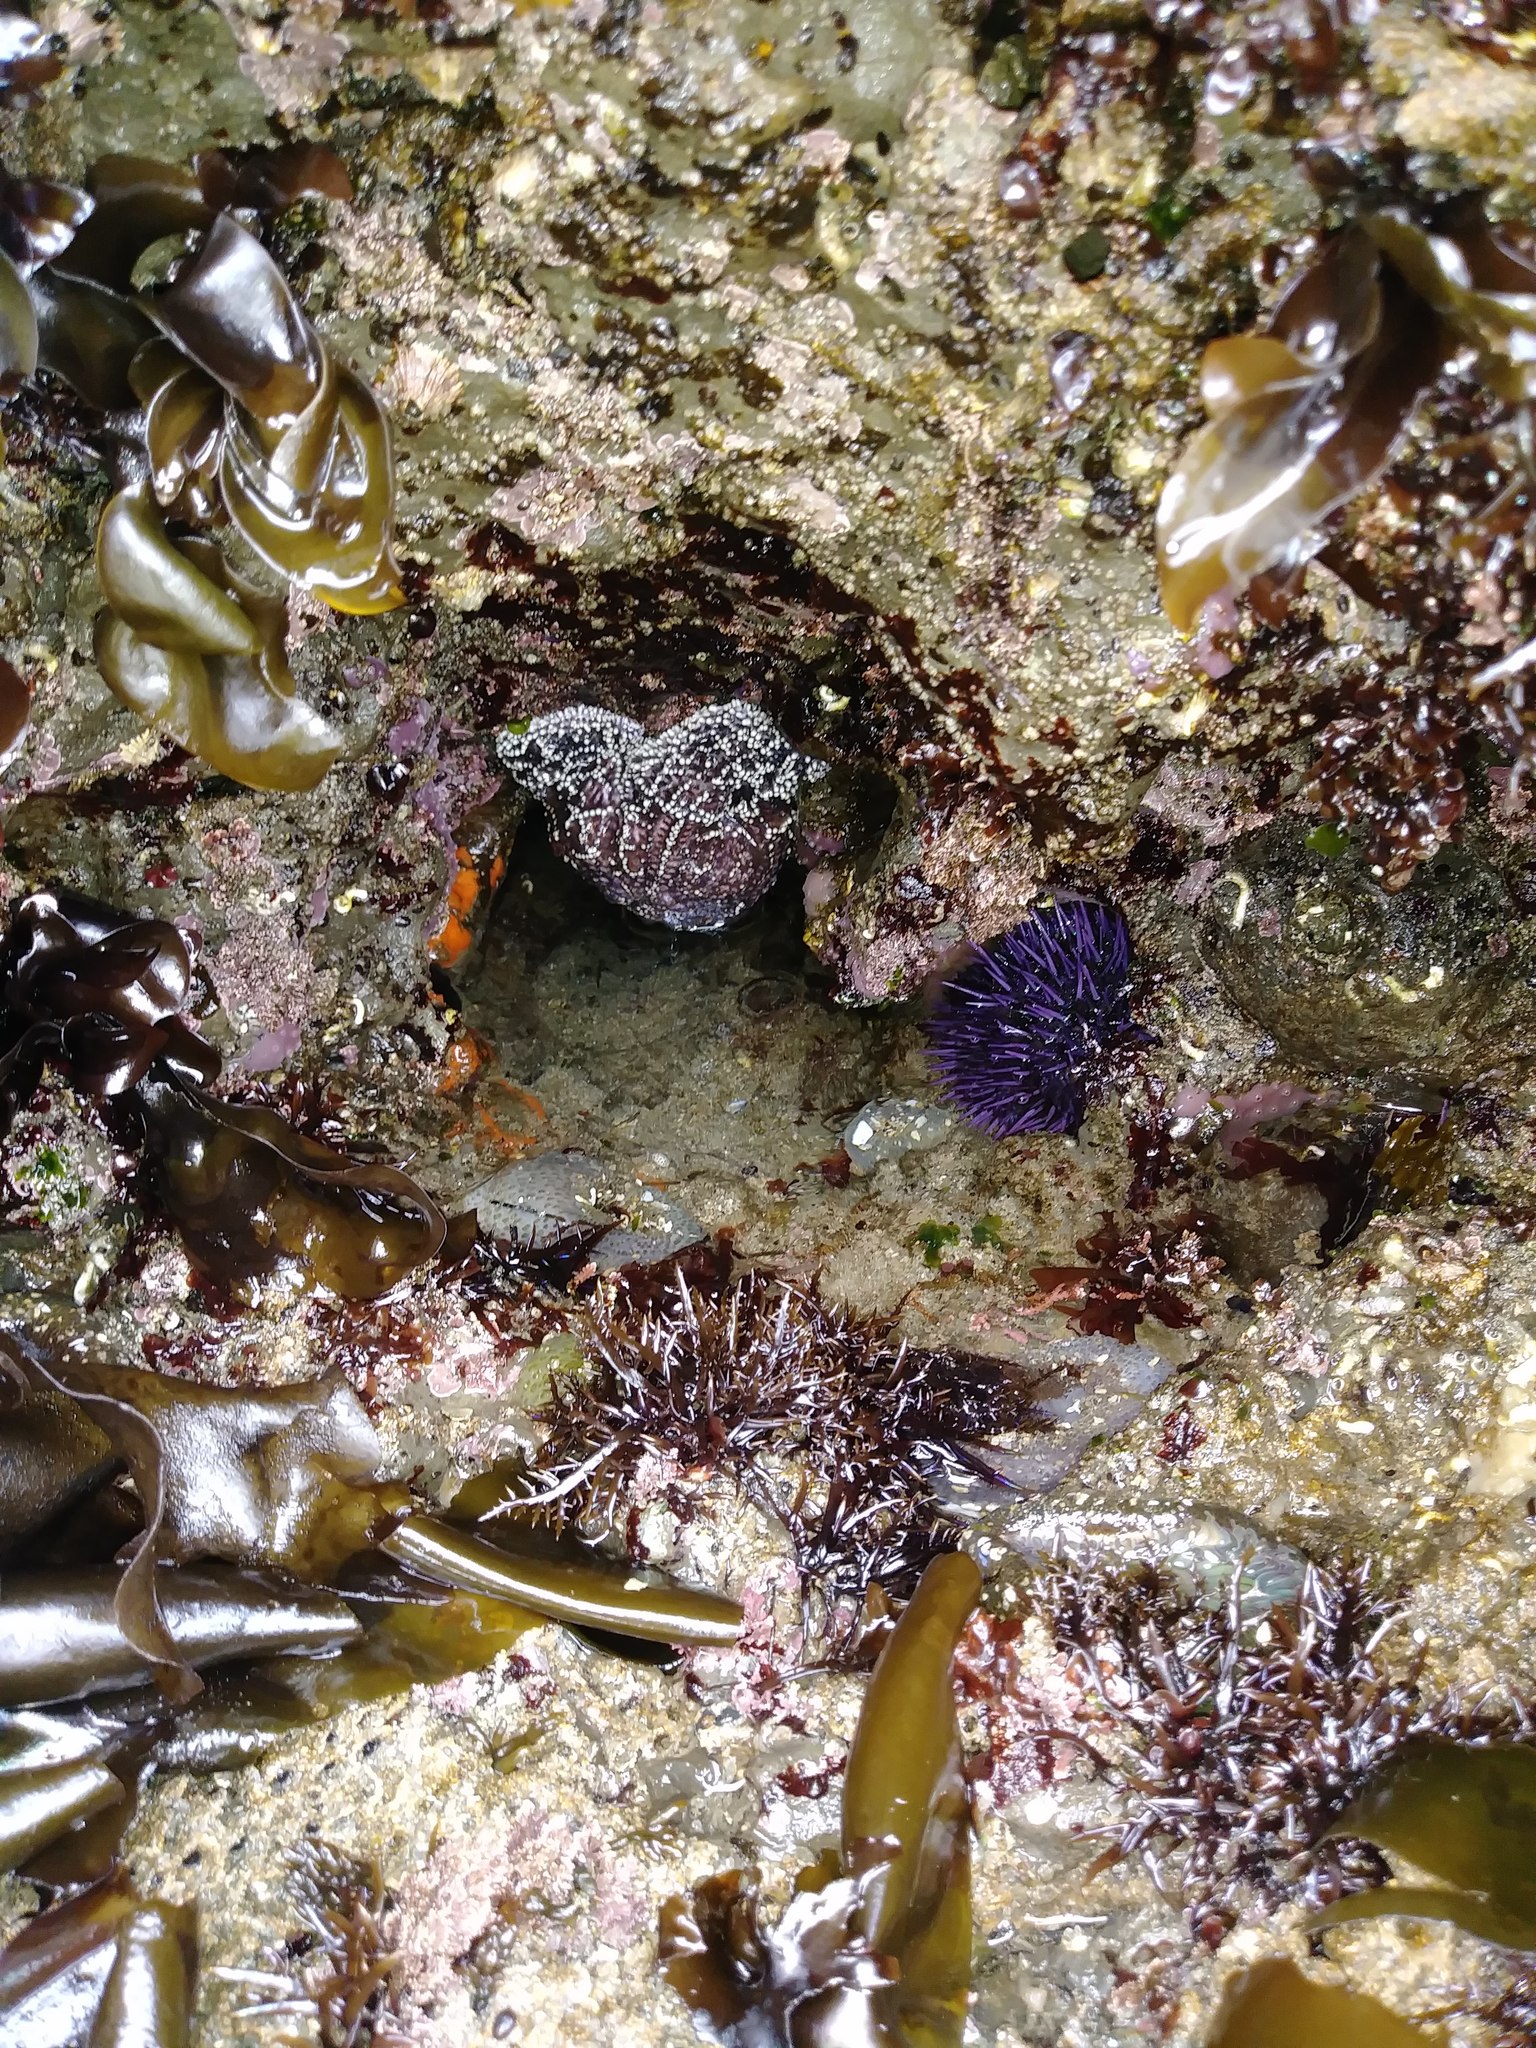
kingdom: Animalia
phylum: Echinodermata
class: Asteroidea
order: Forcipulatida
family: Asteriidae
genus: Pisaster
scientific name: Pisaster ochraceus
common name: Ochre stars
